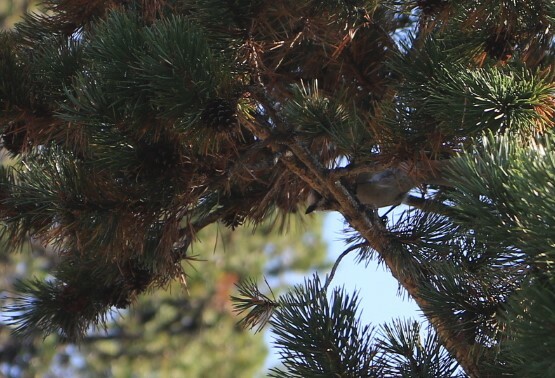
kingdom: Animalia
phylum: Chordata
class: Aves
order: Passeriformes
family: Corvidae
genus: Perisoreus
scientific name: Perisoreus canadensis
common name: Gray jay
